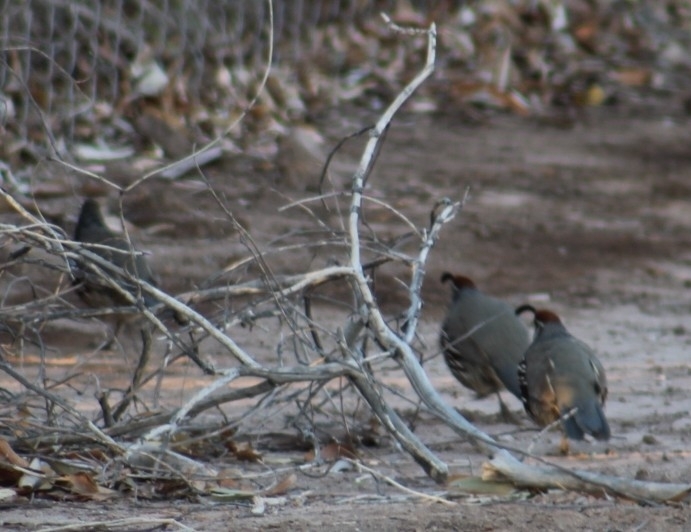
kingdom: Animalia
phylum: Chordata
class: Aves
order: Galliformes
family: Odontophoridae
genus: Callipepla
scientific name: Callipepla gambelii
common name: Gambel's quail
